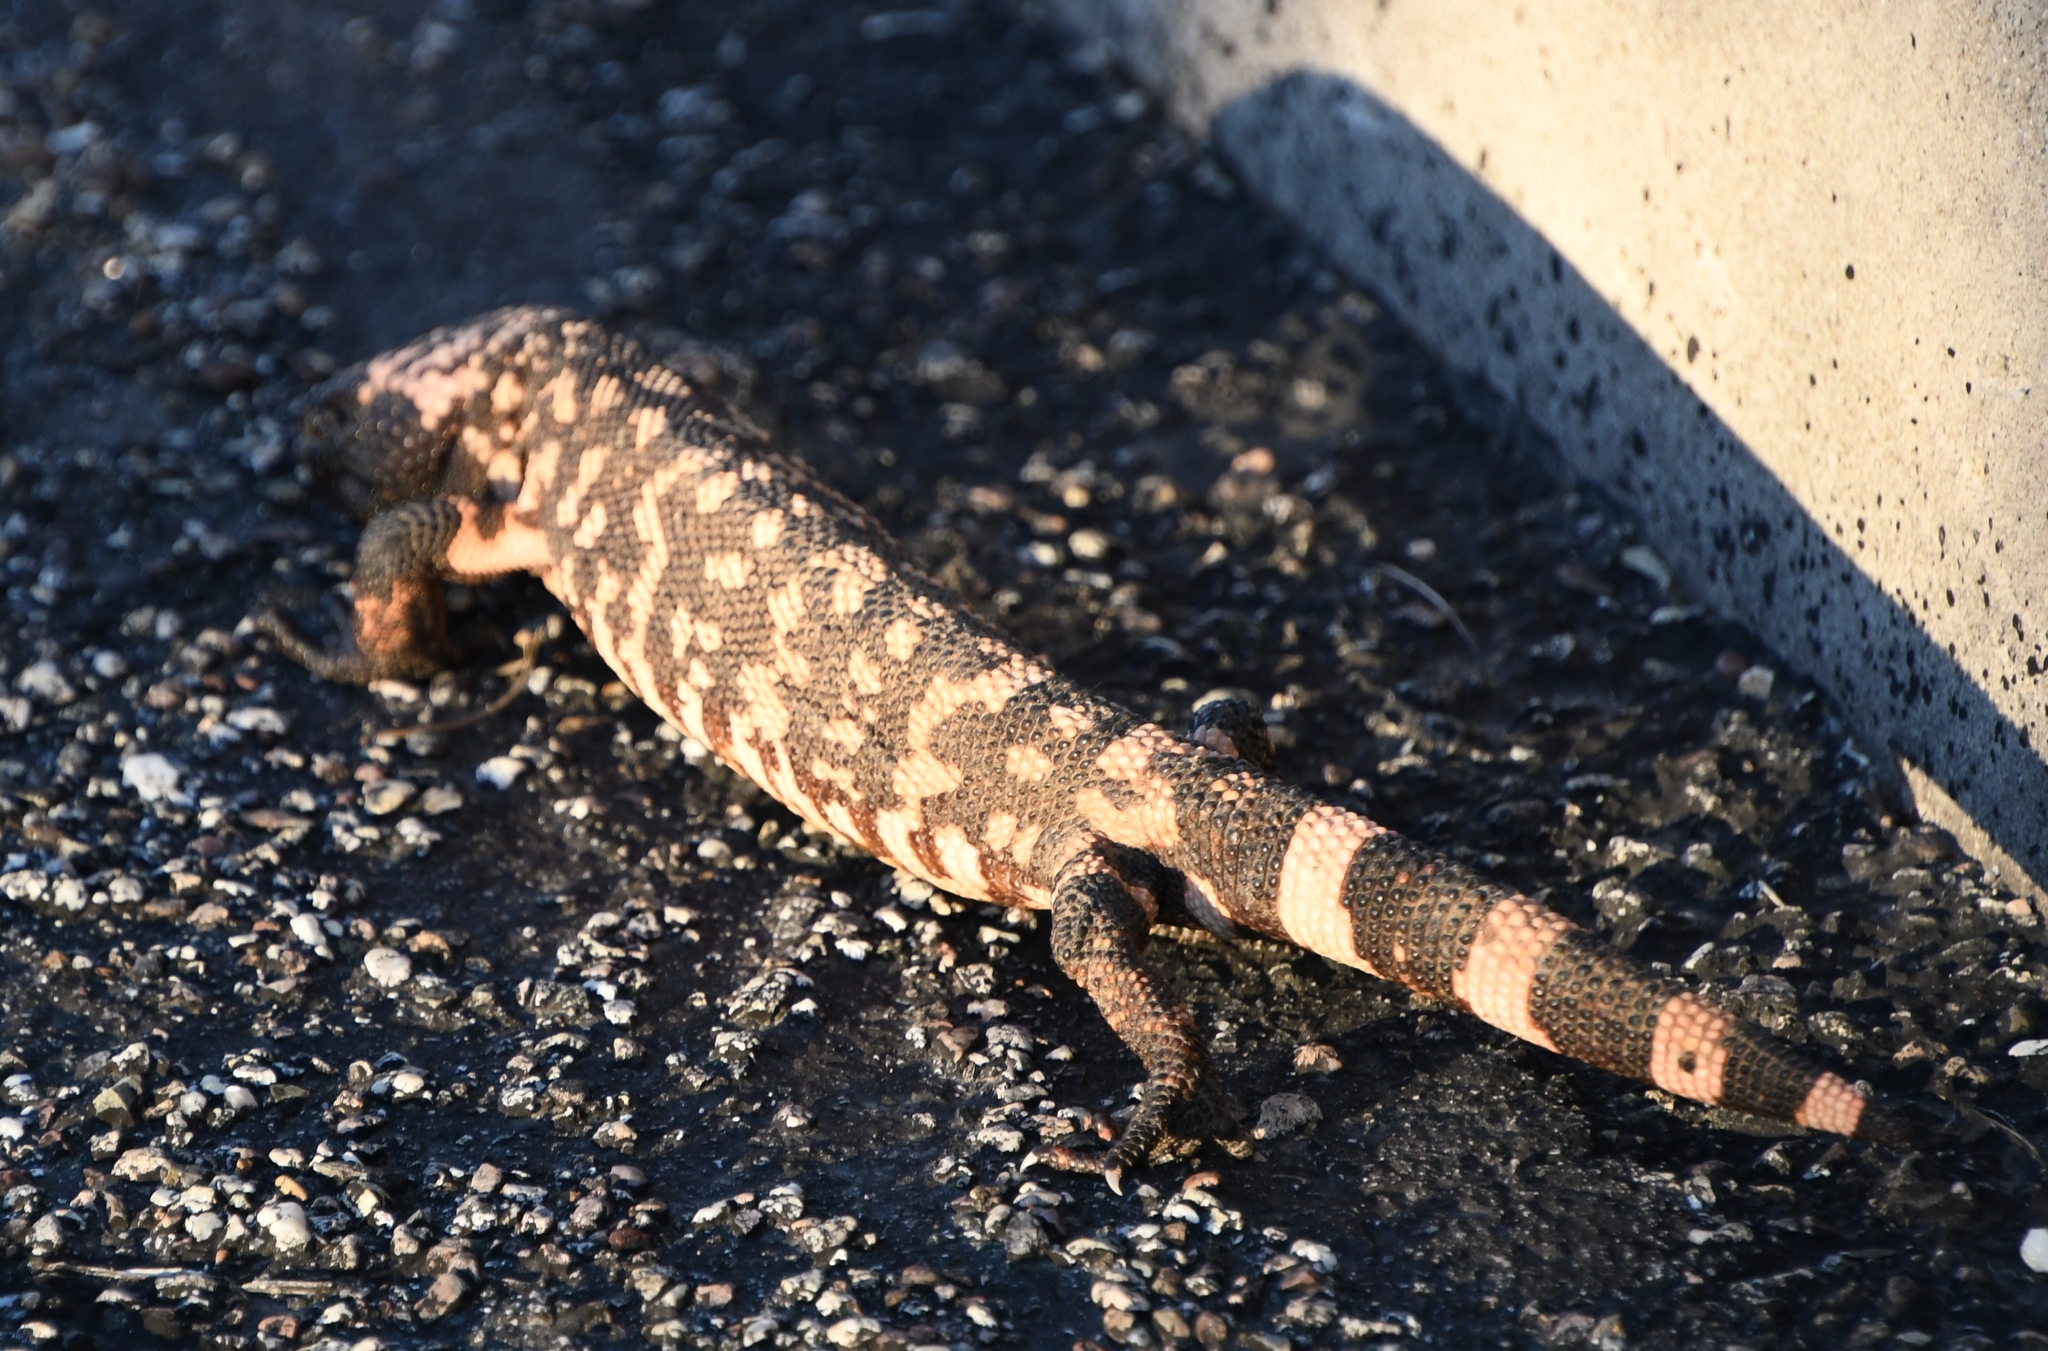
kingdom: Animalia
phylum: Chordata
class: Squamata
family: Helodermatidae
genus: Heloderma
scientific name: Heloderma suspectum
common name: Gila monster
